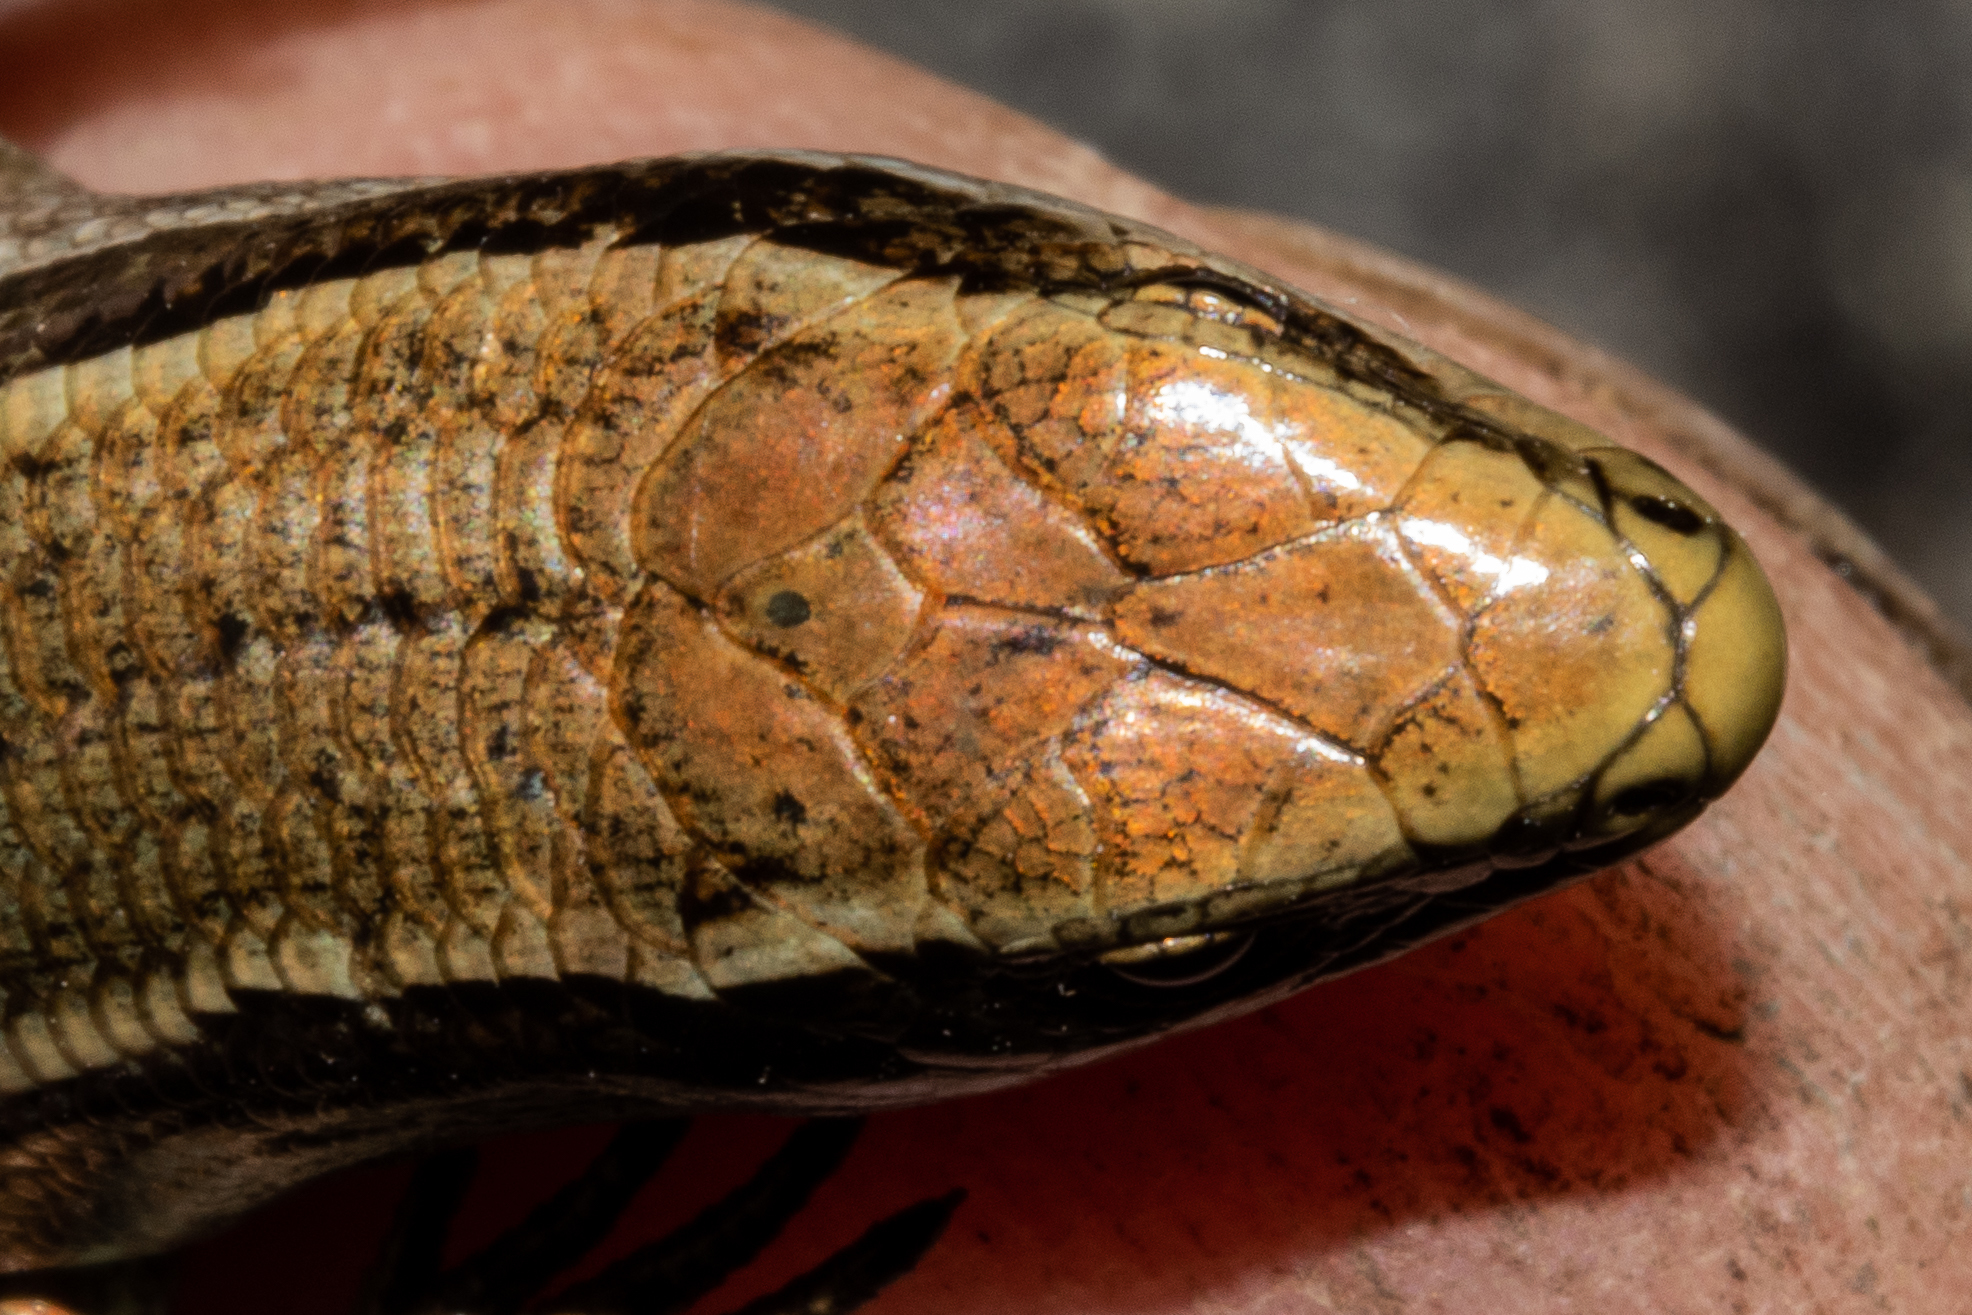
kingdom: Animalia
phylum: Chordata
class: Squamata
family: Scincidae
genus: Oligosoma
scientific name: Oligosoma repens
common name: Eyres skink
